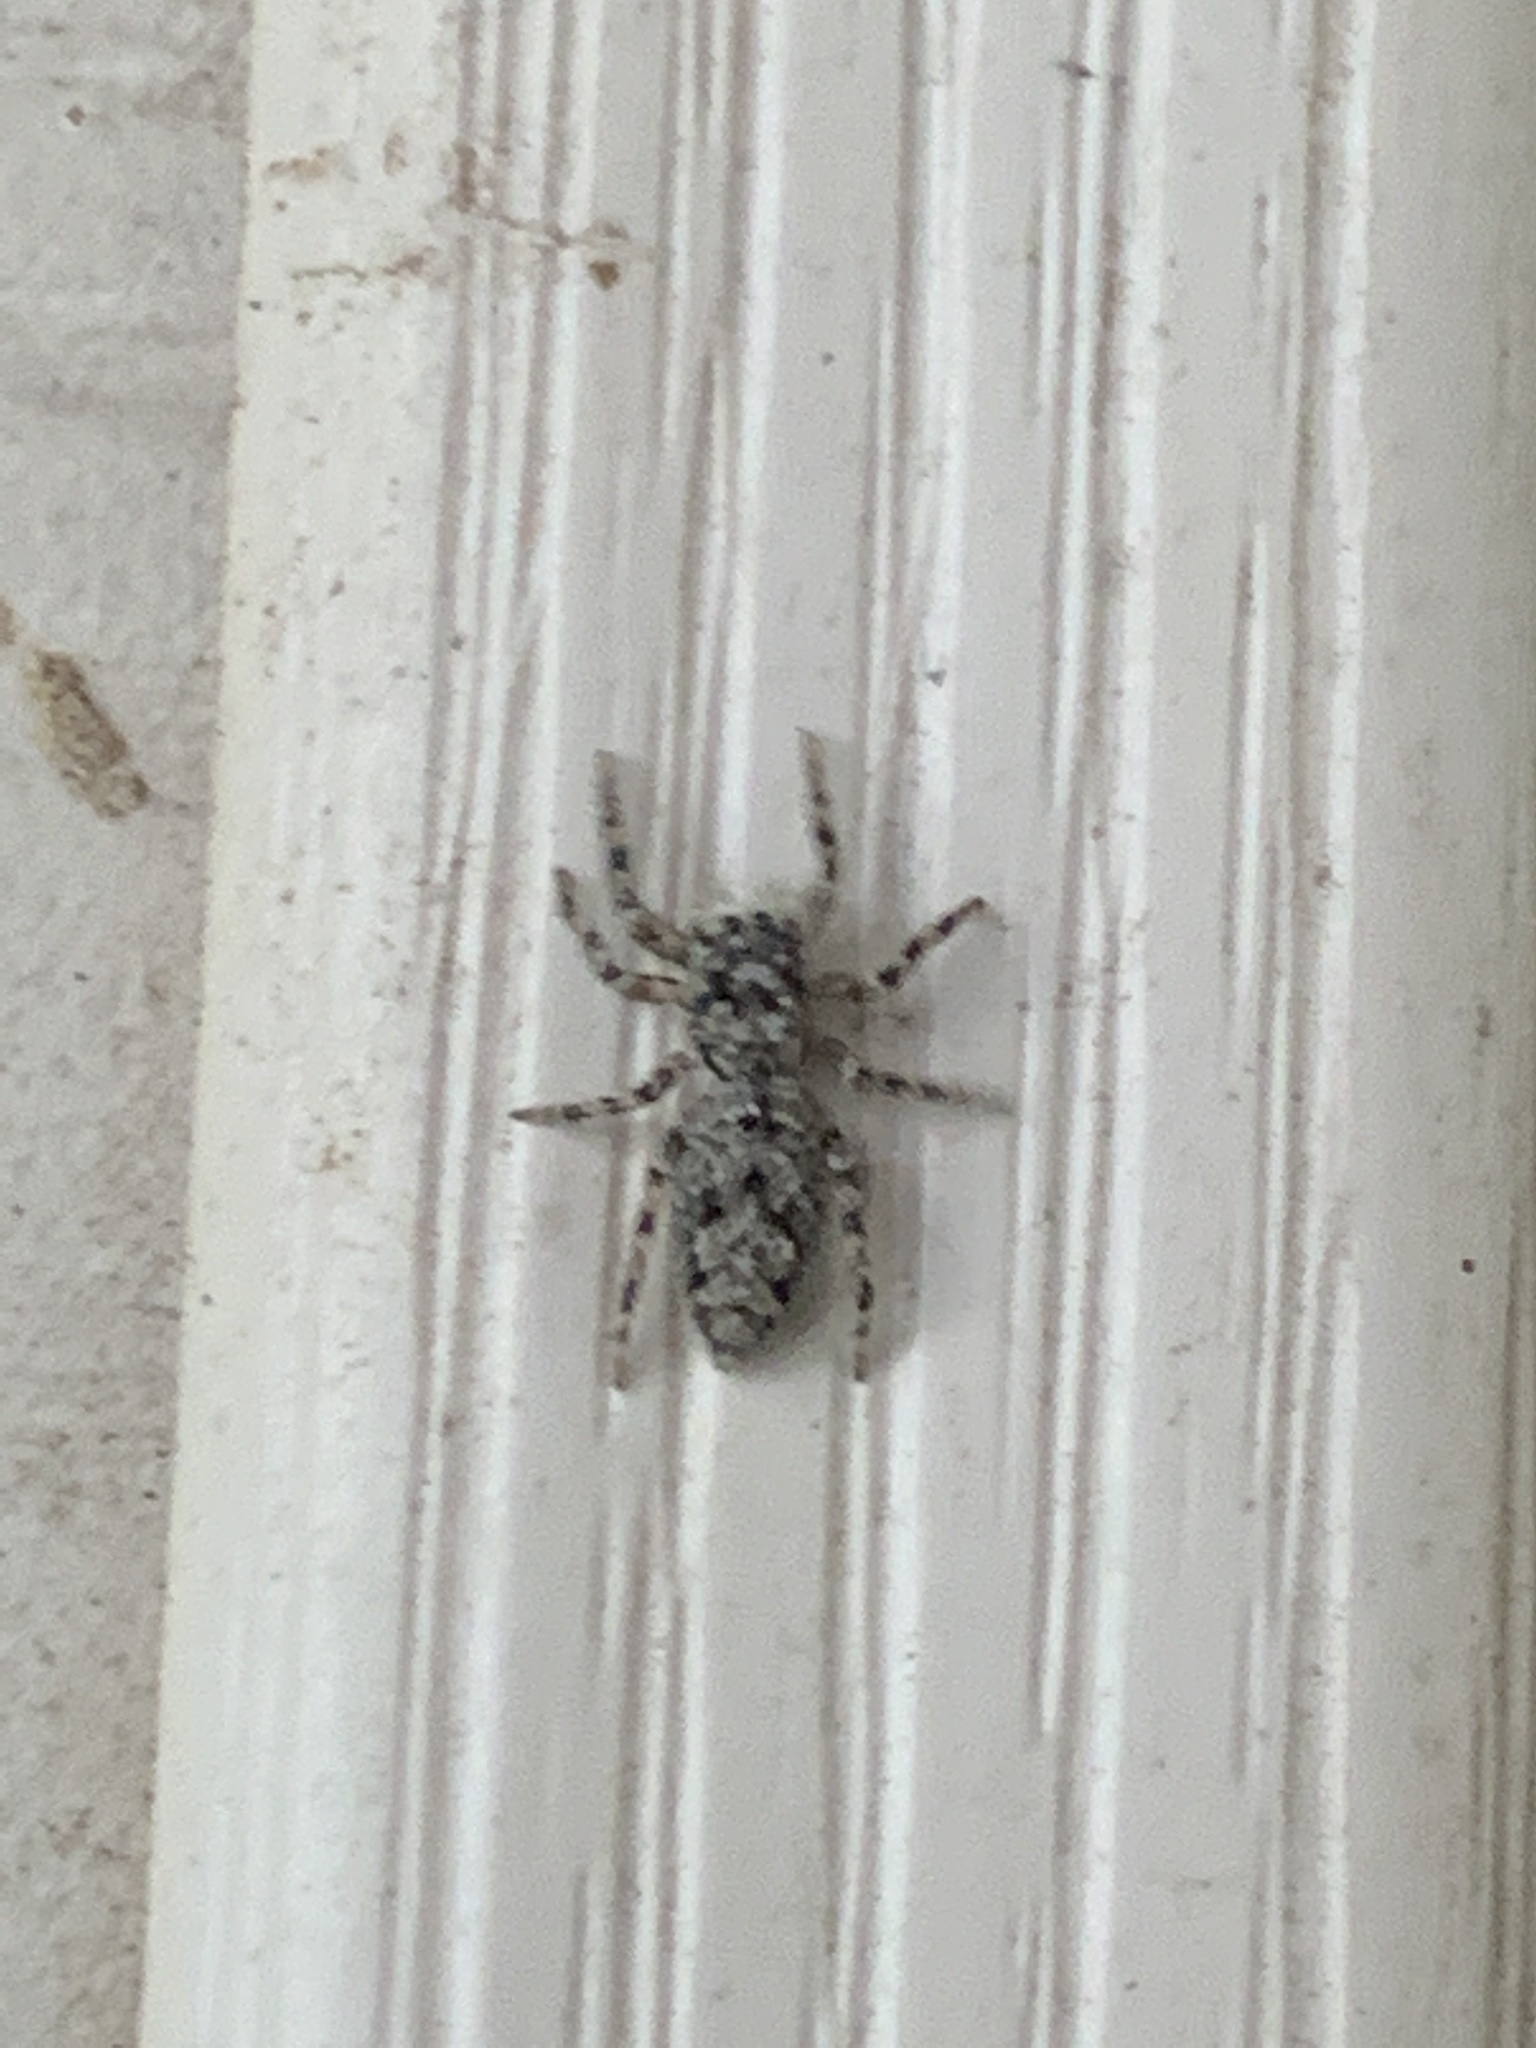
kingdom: Animalia
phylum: Arthropoda
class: Arachnida
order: Araneae
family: Salticidae
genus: Platycryptus
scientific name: Platycryptus undatus
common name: Tan jumping spider
